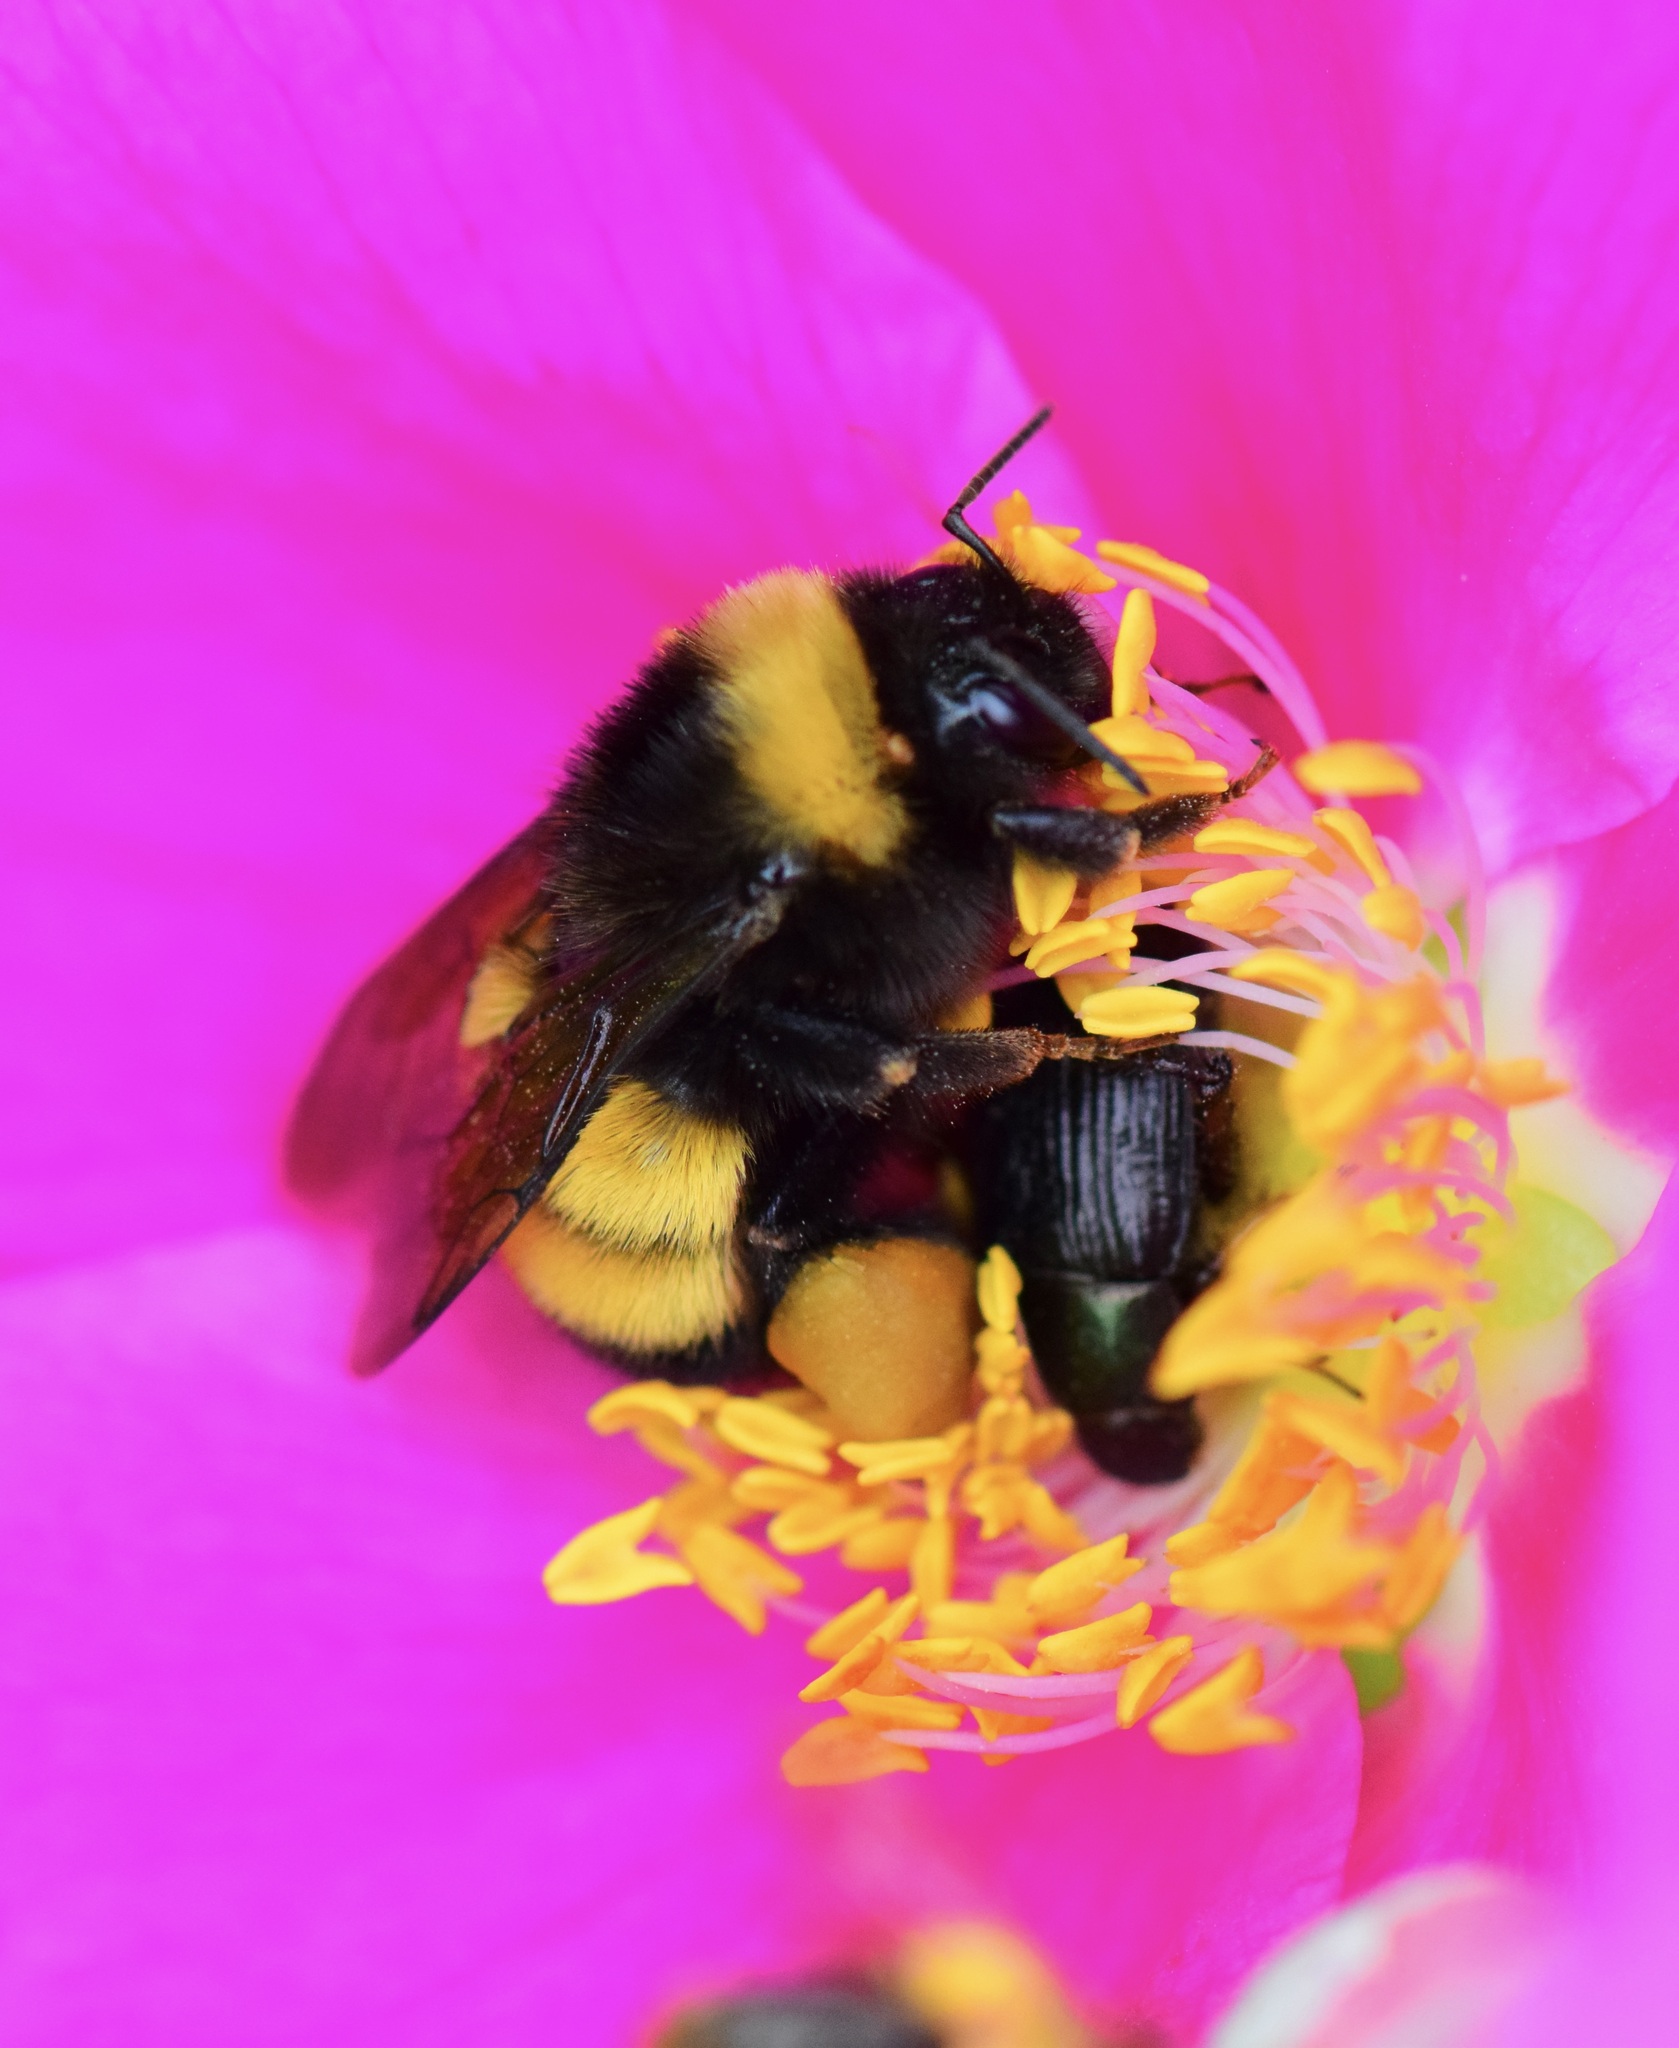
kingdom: Animalia
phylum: Arthropoda
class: Insecta
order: Hymenoptera
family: Apidae
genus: Bombus
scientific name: Bombus terricola
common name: Yellow-banded bumble bee
